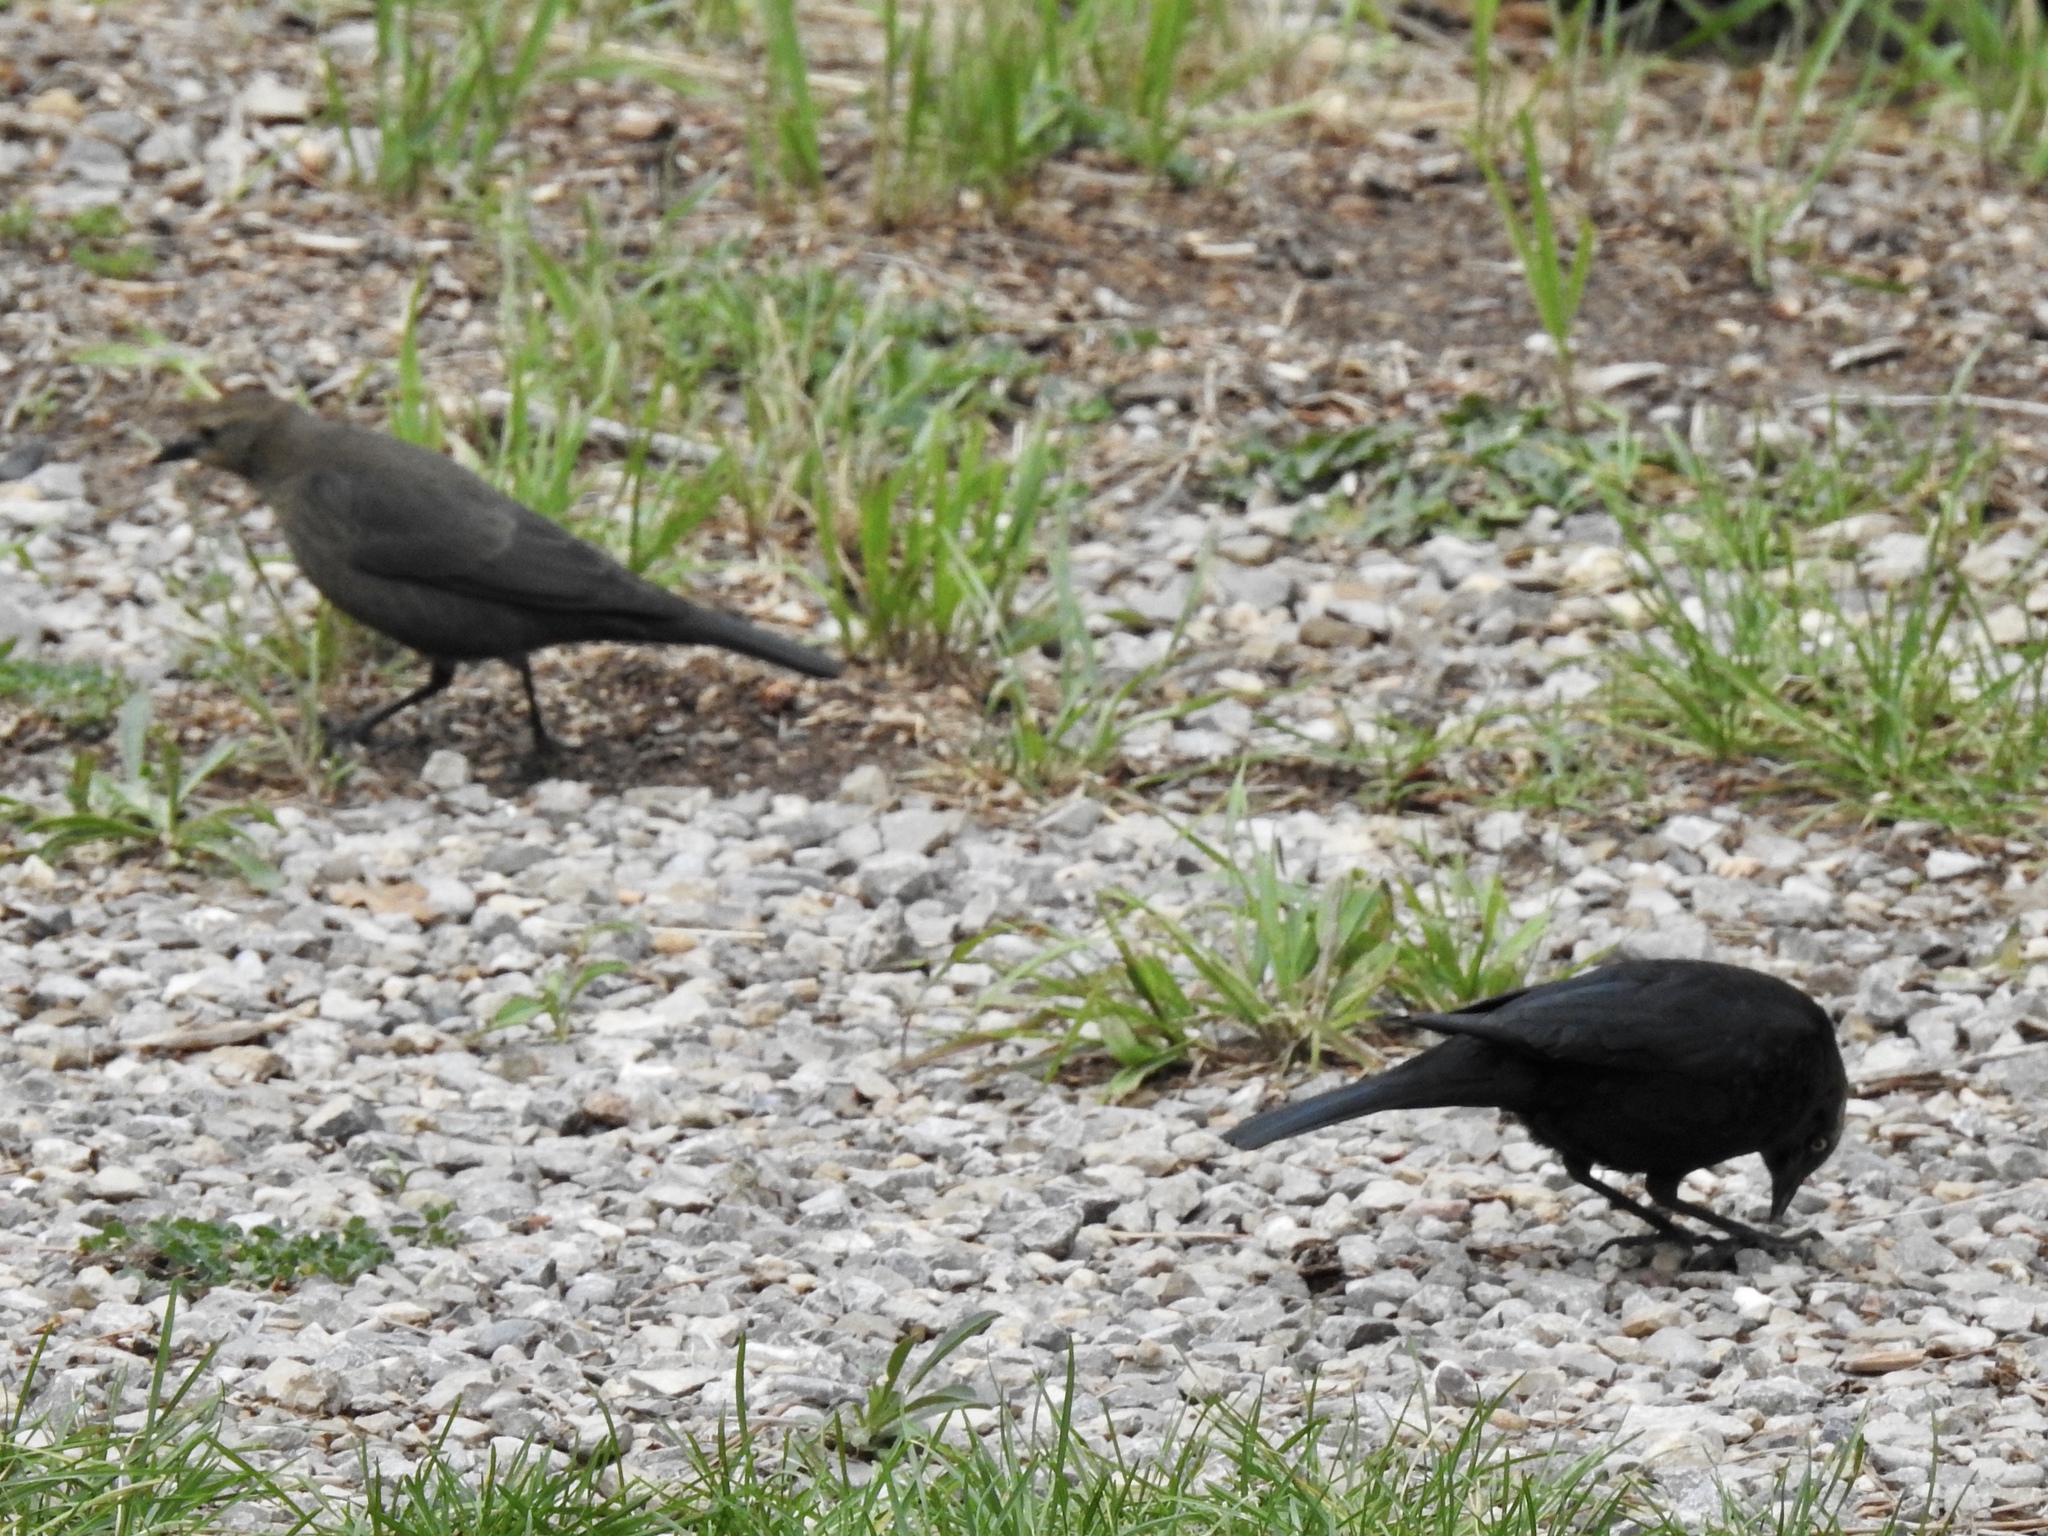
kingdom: Animalia
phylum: Chordata
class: Aves
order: Passeriformes
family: Icteridae
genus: Euphagus
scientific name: Euphagus cyanocephalus
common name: Brewer's blackbird
